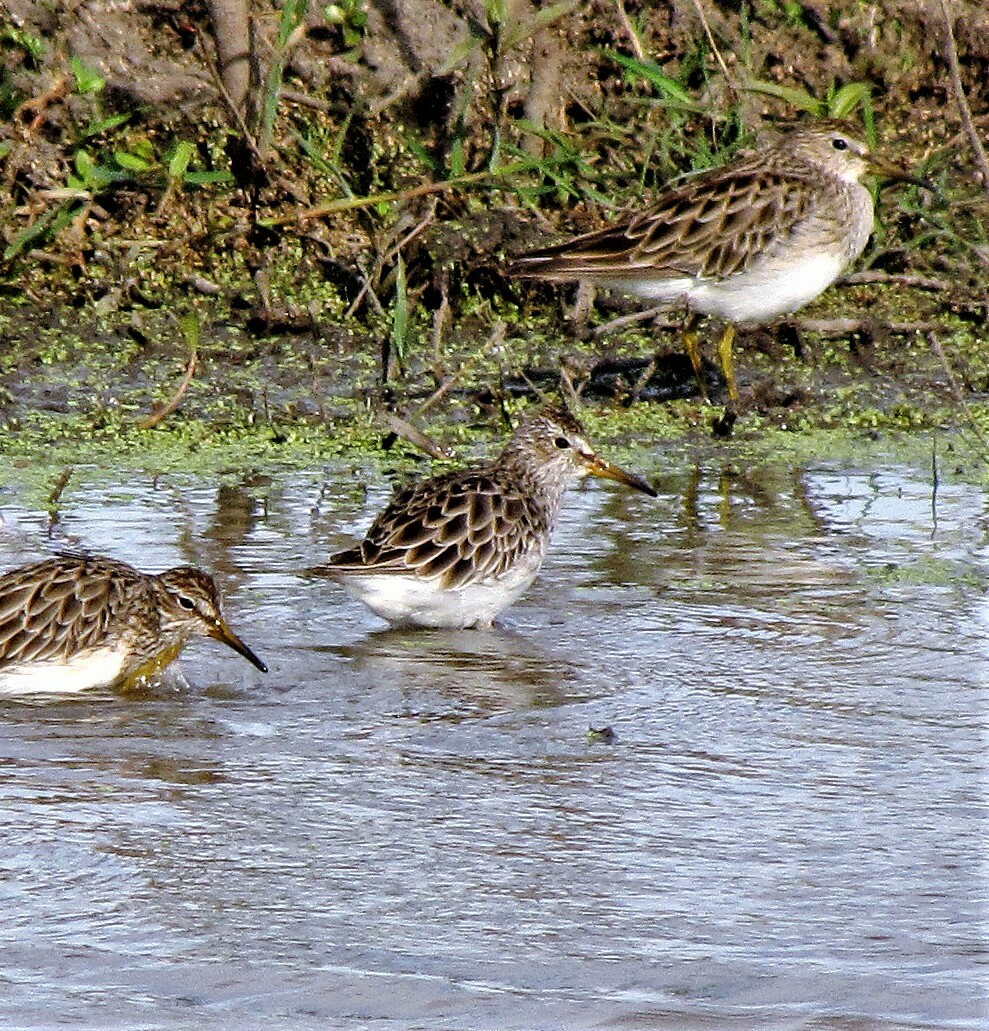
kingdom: Animalia
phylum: Chordata
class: Aves
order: Charadriiformes
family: Scolopacidae
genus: Calidris
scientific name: Calidris melanotos
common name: Pectoral sandpiper
